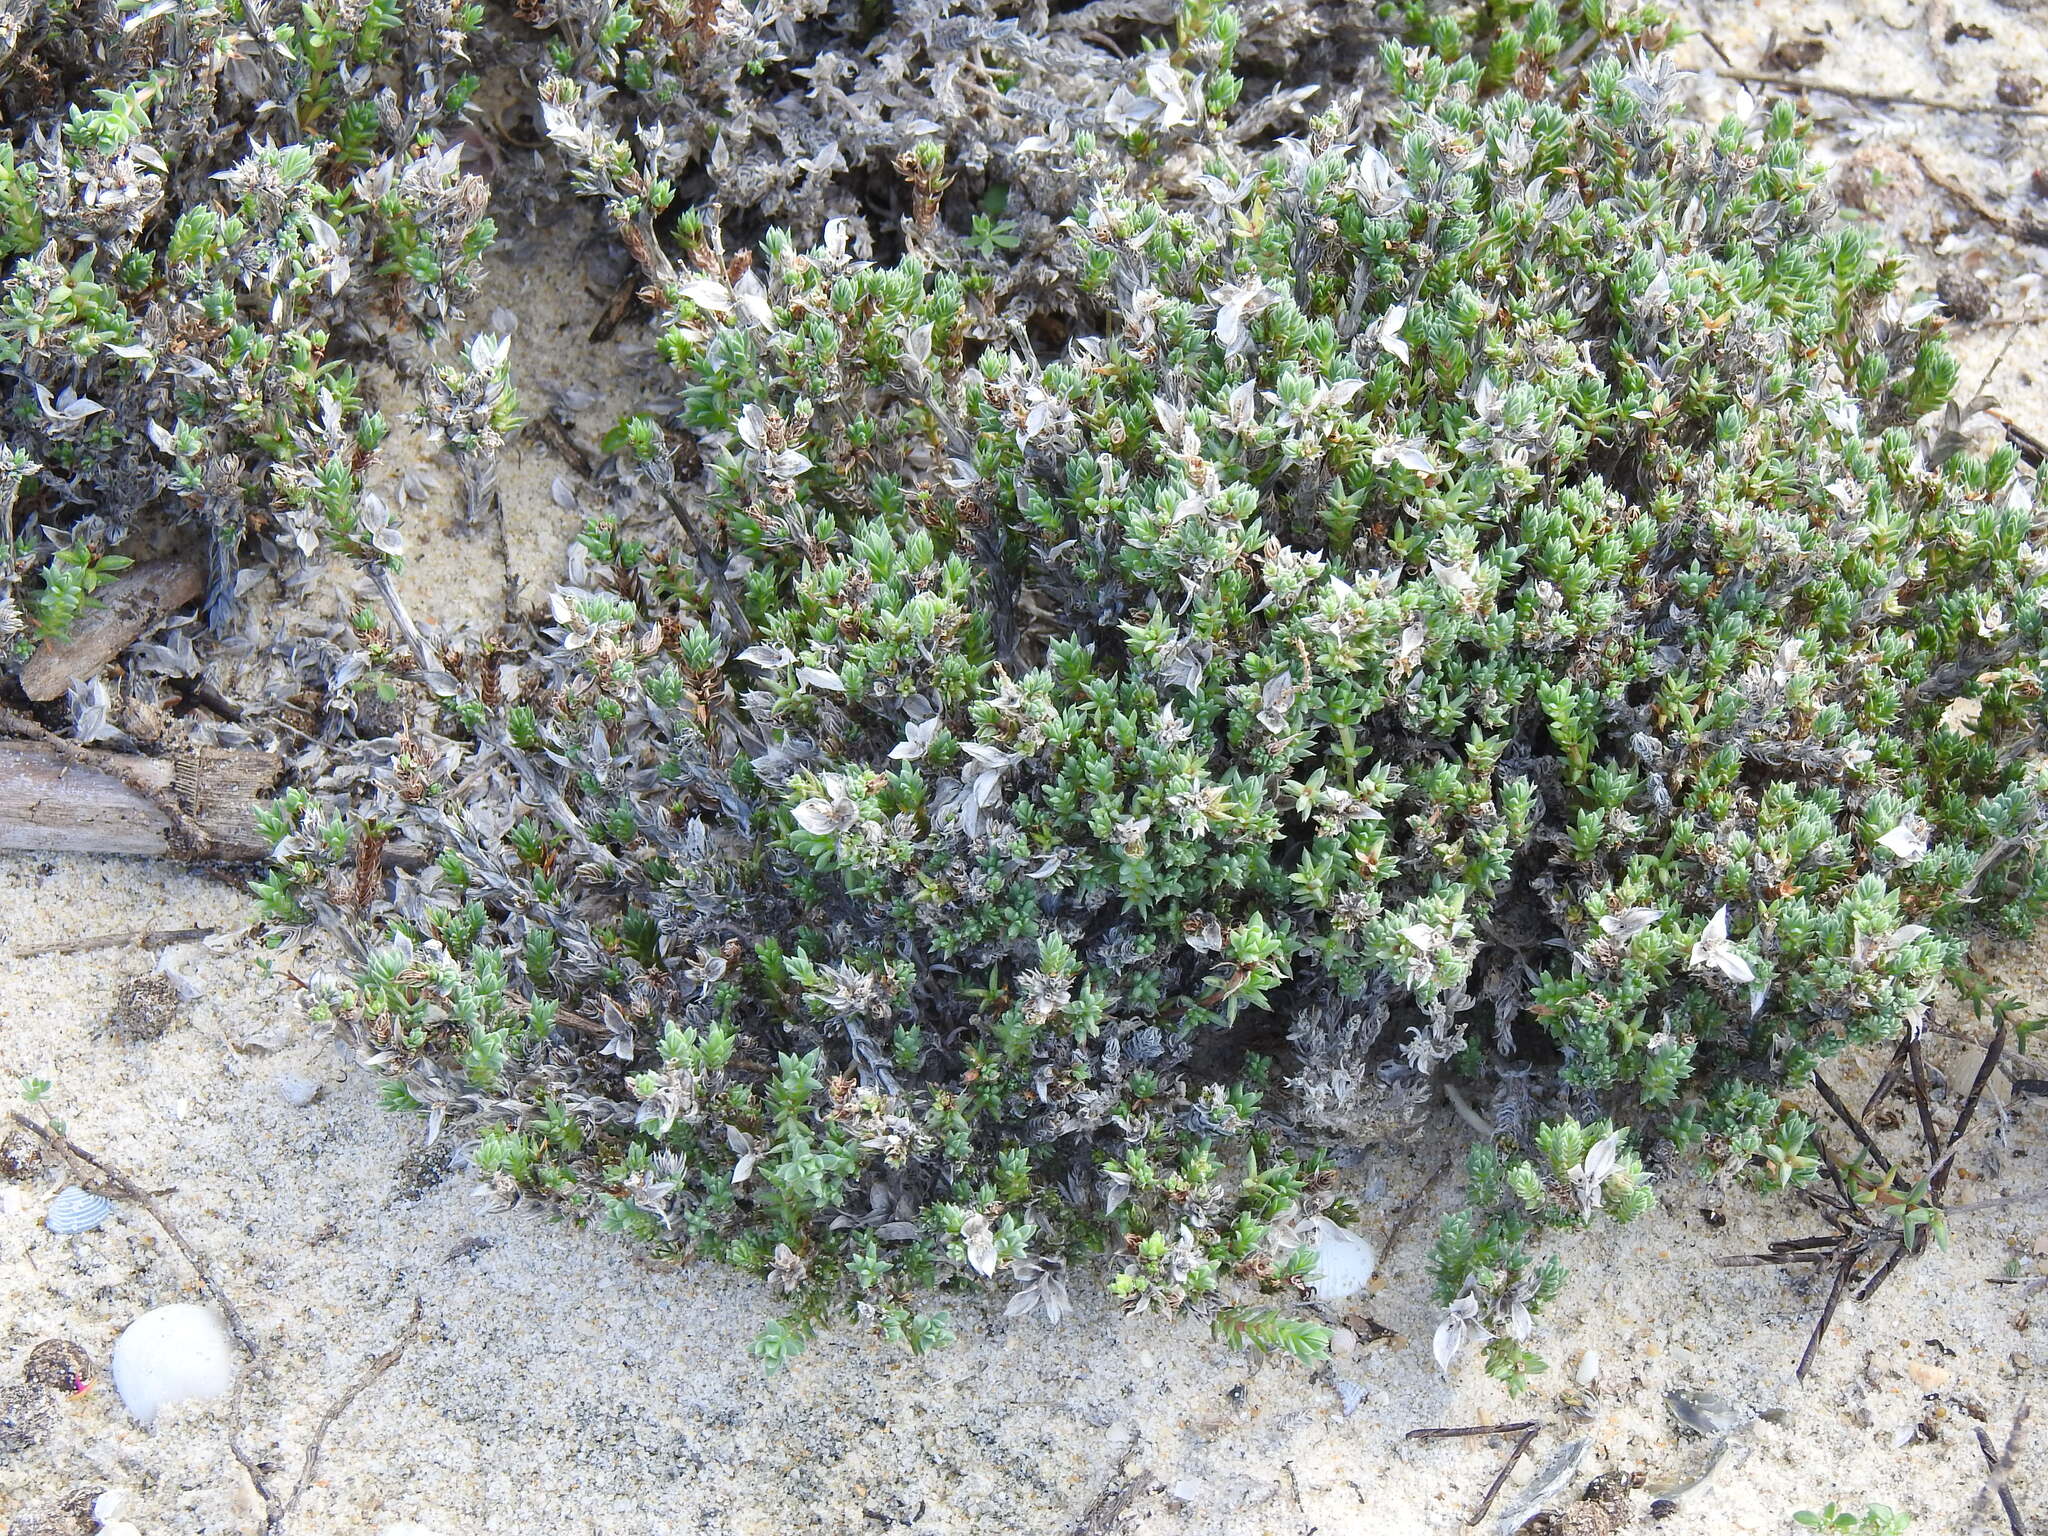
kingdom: Plantae
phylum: Tracheophyta
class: Magnoliopsida
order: Gentianales
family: Rubiaceae
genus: Crucianella
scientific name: Crucianella maritima
